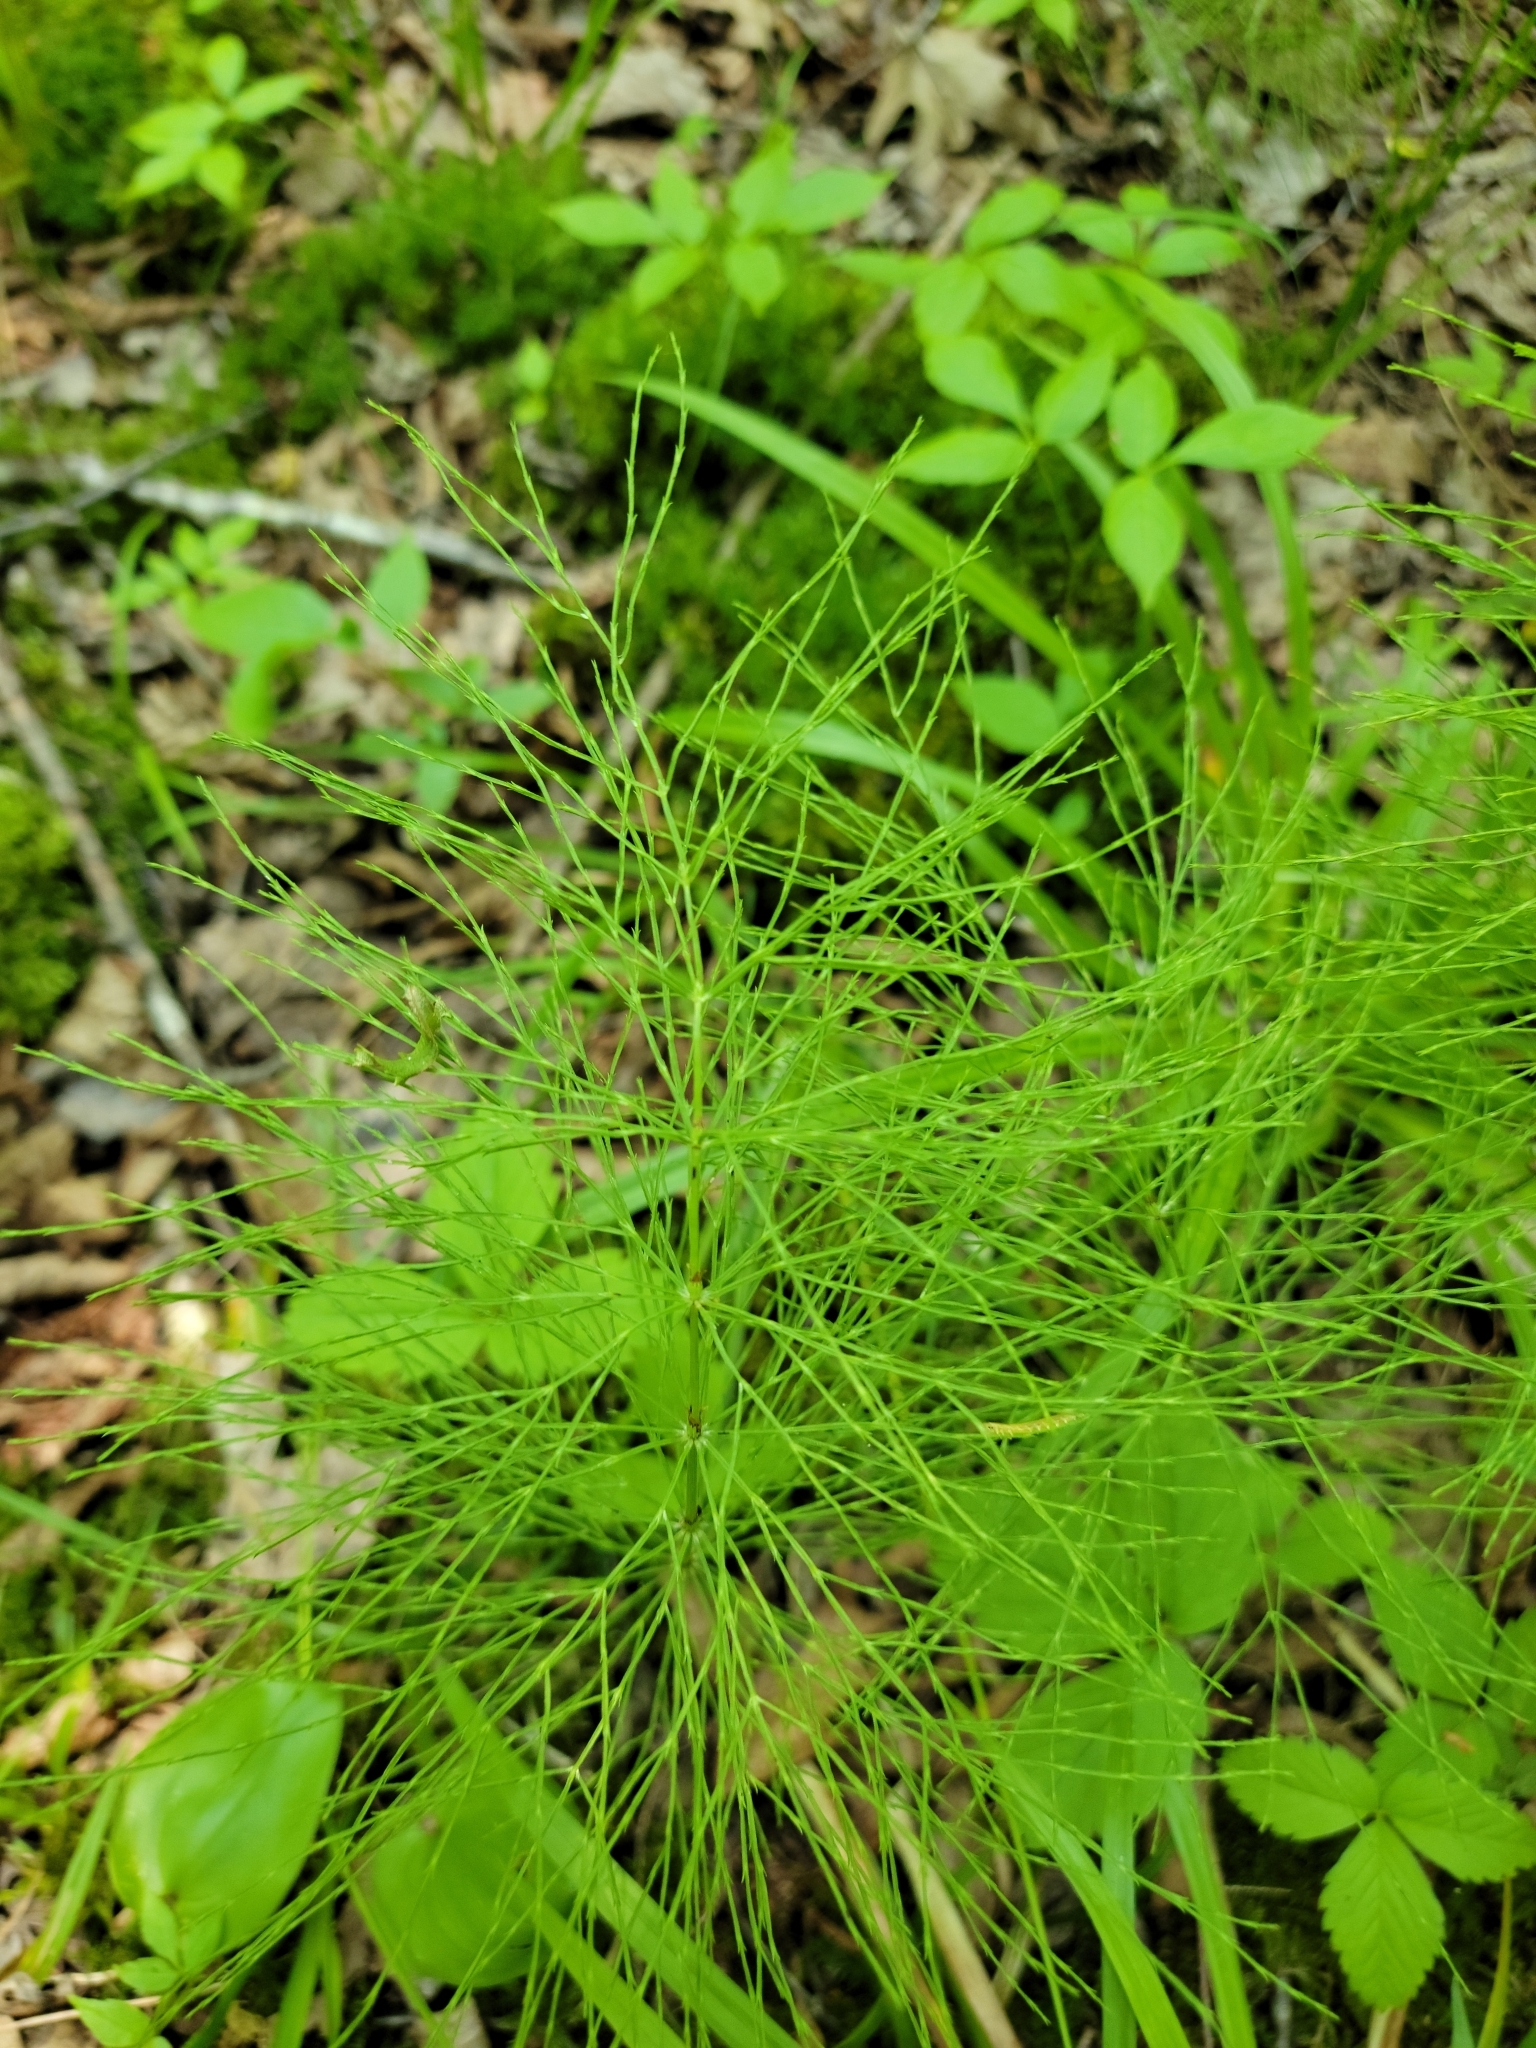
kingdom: Plantae
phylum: Tracheophyta
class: Polypodiopsida
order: Equisetales
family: Equisetaceae
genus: Equisetum
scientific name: Equisetum sylvaticum
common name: Wood horsetail
